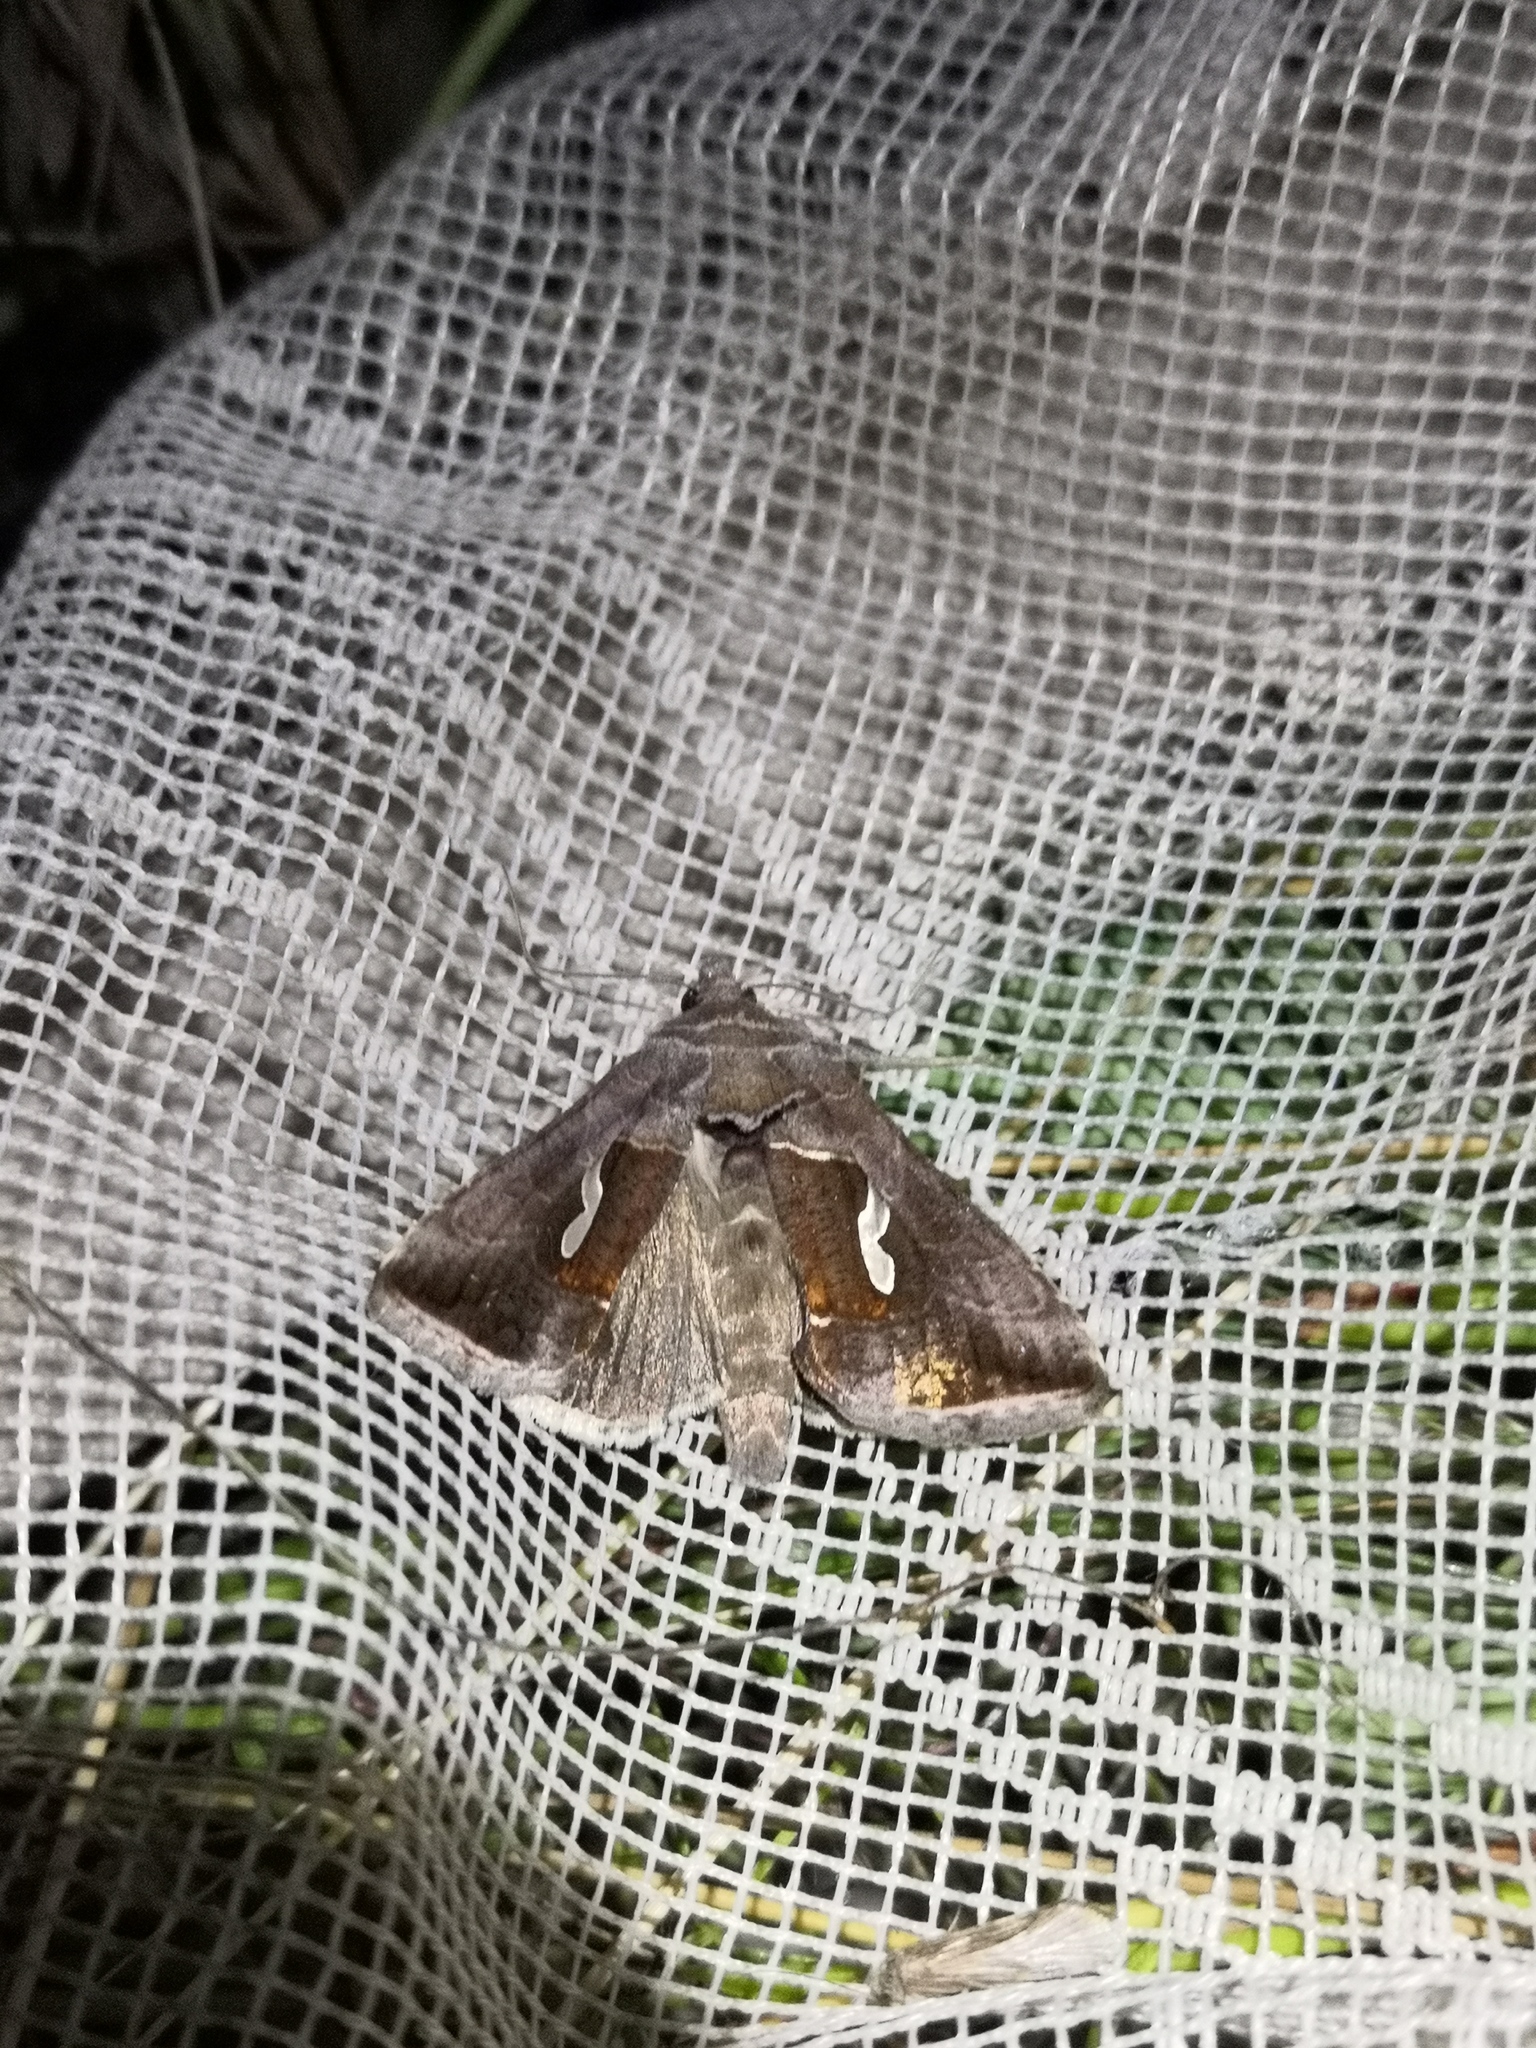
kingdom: Animalia
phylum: Arthropoda
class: Insecta
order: Lepidoptera
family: Noctuidae
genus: Macdunnoughia
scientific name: Macdunnoughia confusa
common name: Dewick's plusia
